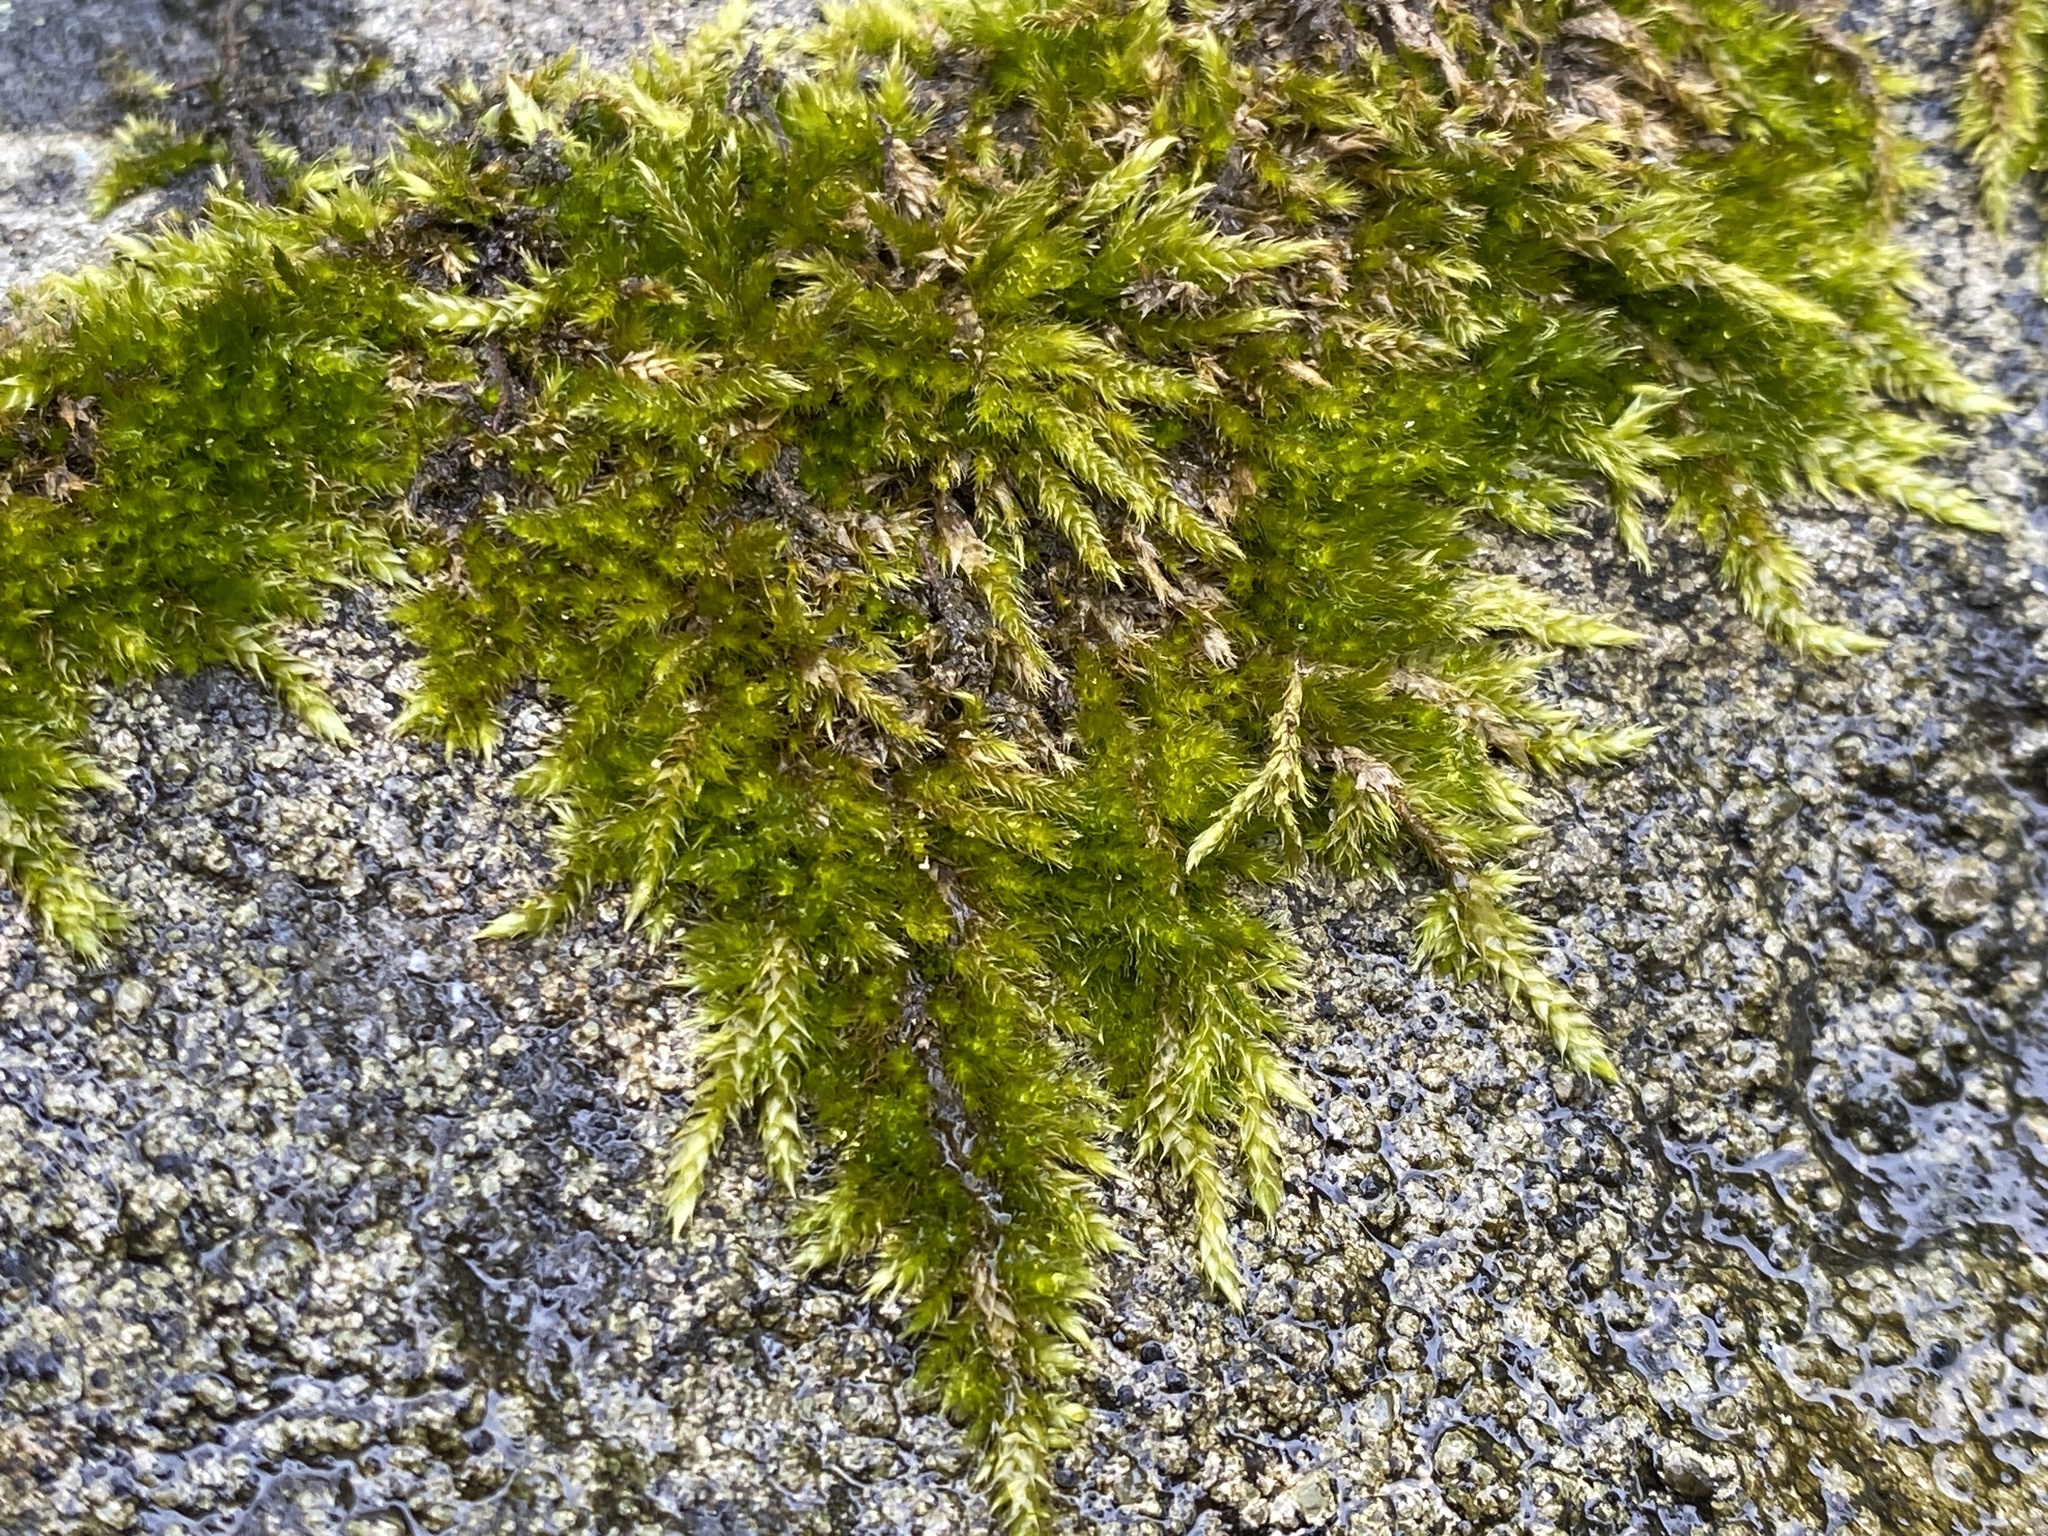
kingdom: Plantae
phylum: Bryophyta
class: Bryopsida
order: Hypnales
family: Hypnaceae
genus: Hypnum
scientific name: Hypnum cupressiforme
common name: Cypress-leaved plait-moss
